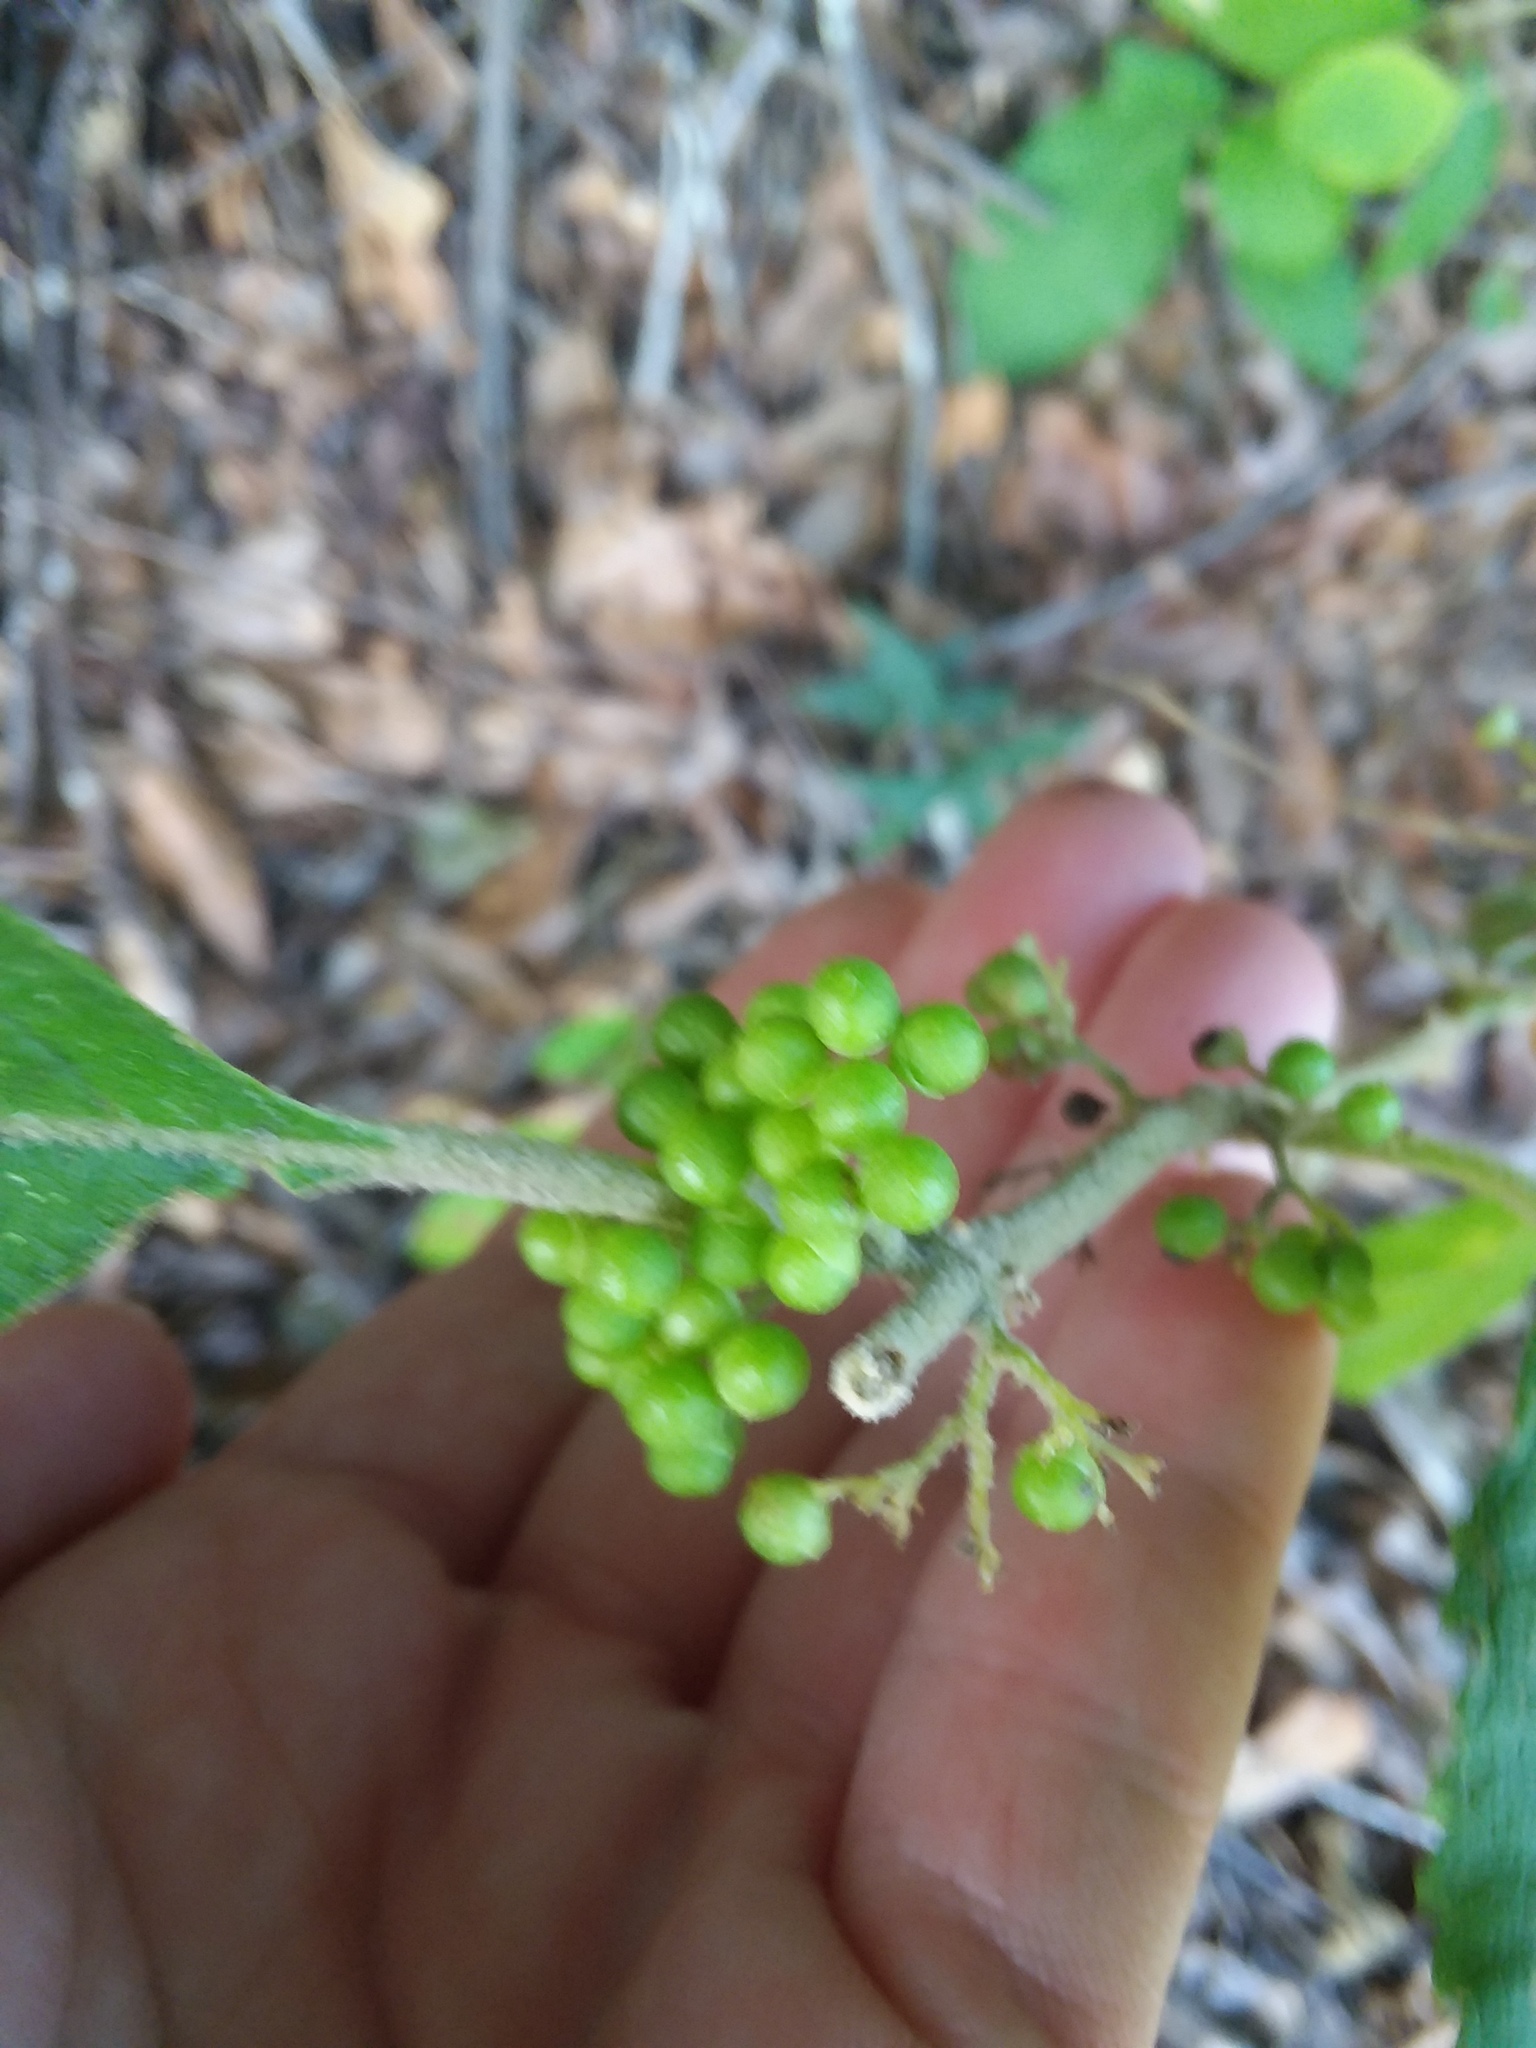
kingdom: Plantae
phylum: Tracheophyta
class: Magnoliopsida
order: Lamiales
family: Lamiaceae
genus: Callicarpa
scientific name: Callicarpa americana
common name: American beautyberry
